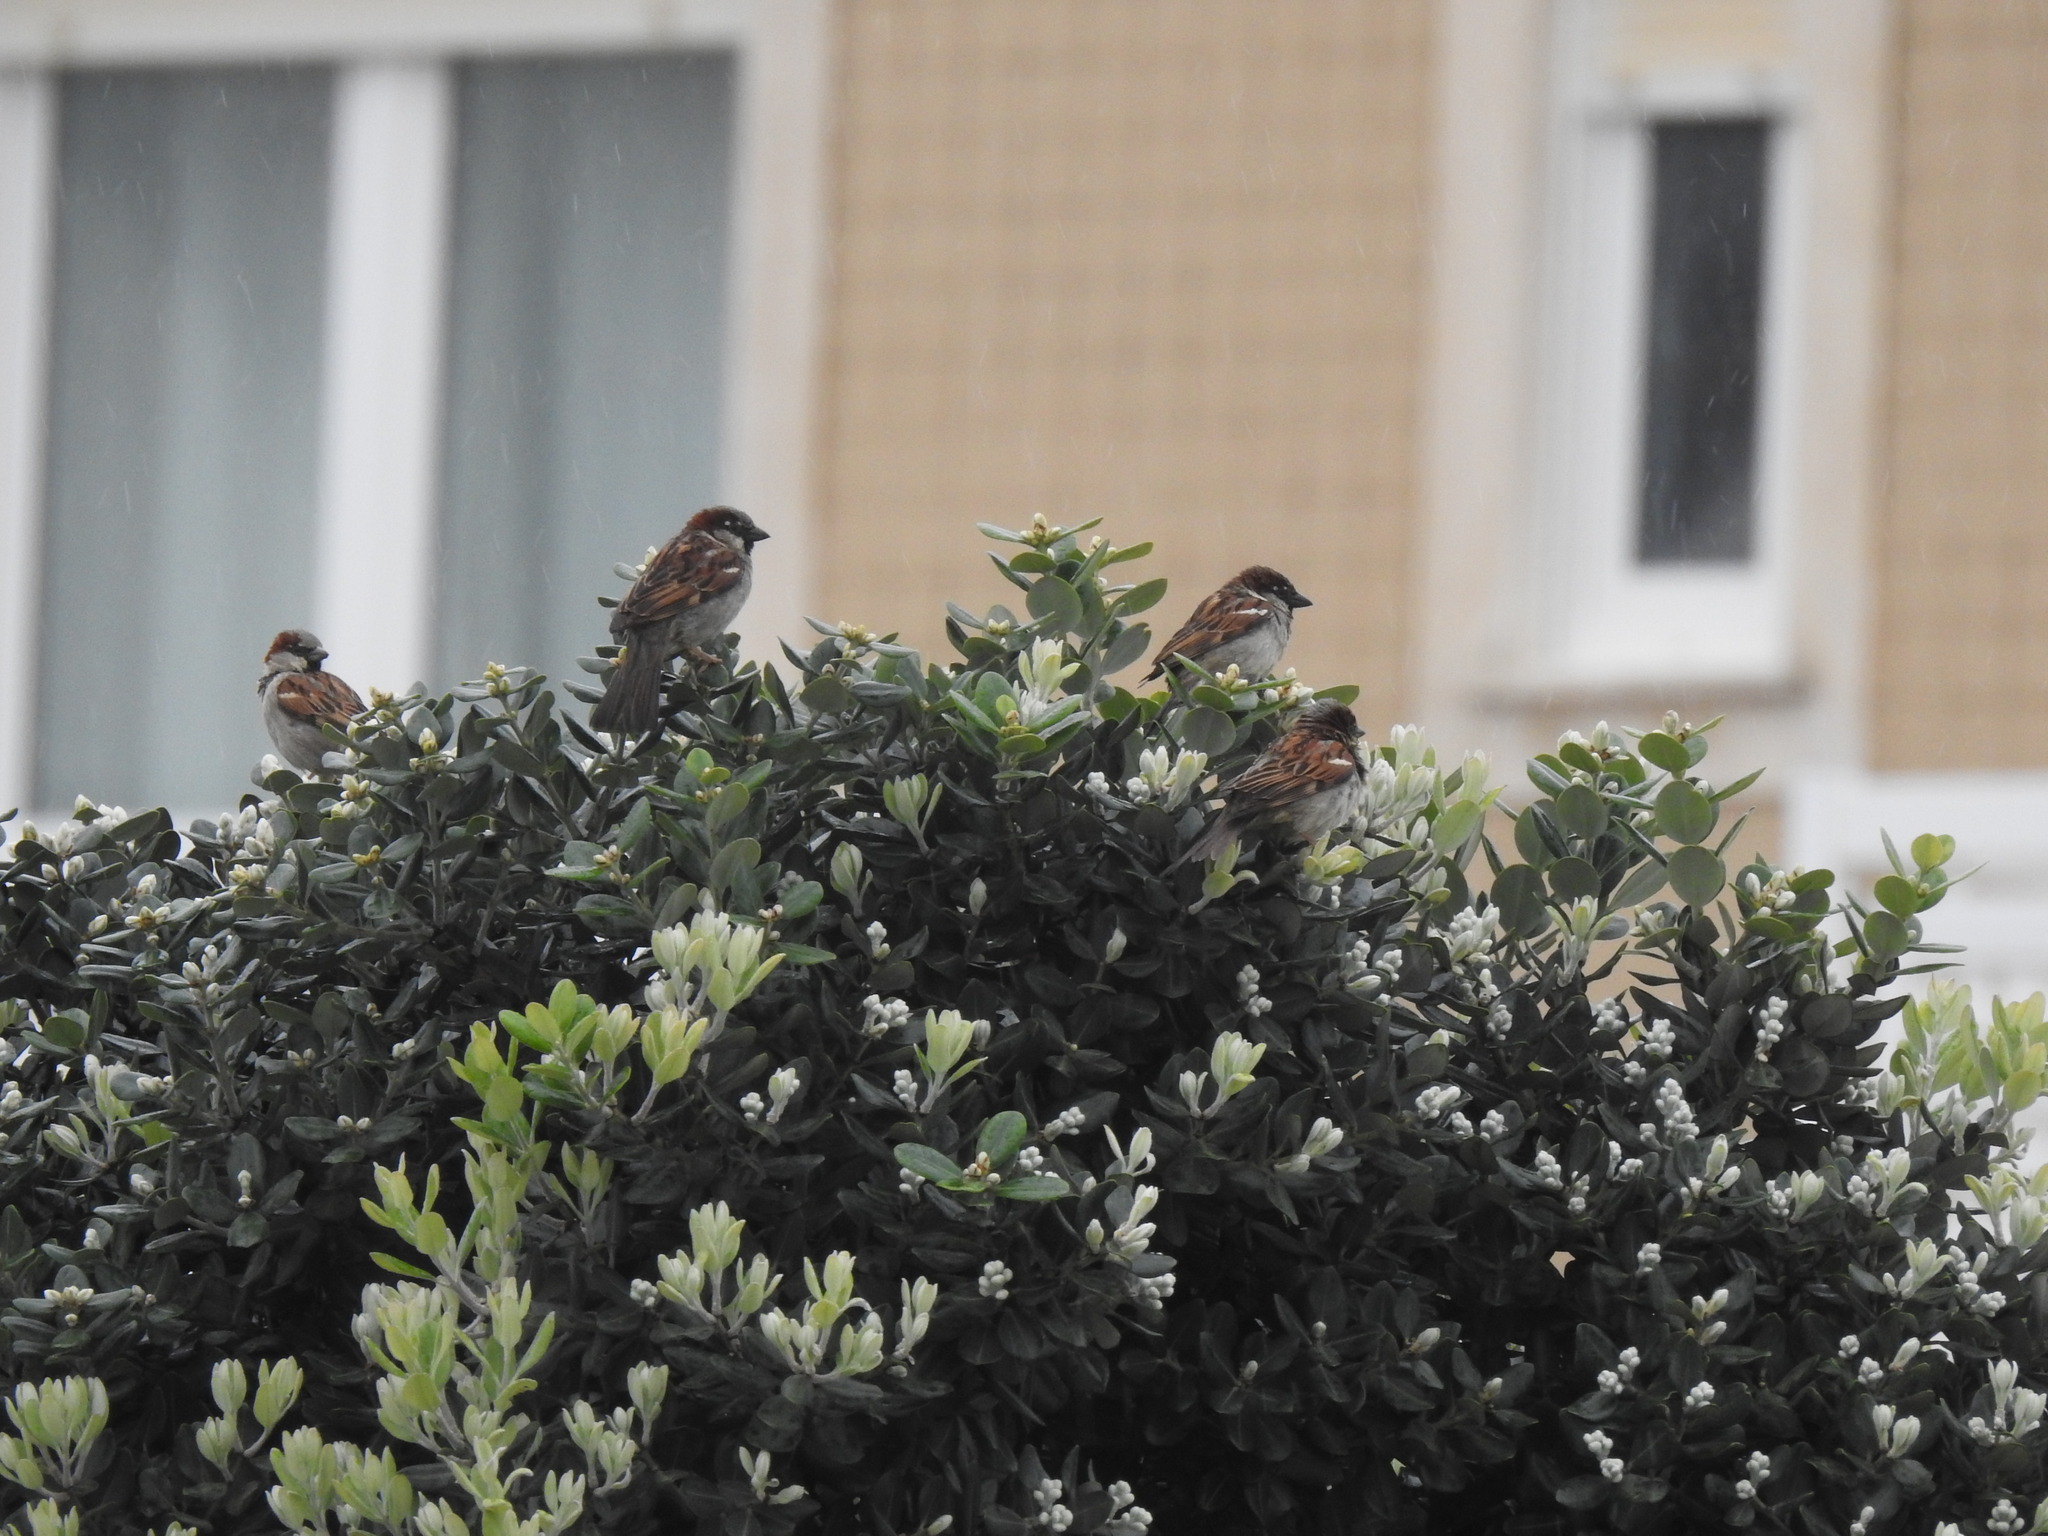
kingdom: Animalia
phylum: Chordata
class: Aves
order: Passeriformes
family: Passeridae
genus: Passer
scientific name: Passer domesticus
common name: House sparrow
